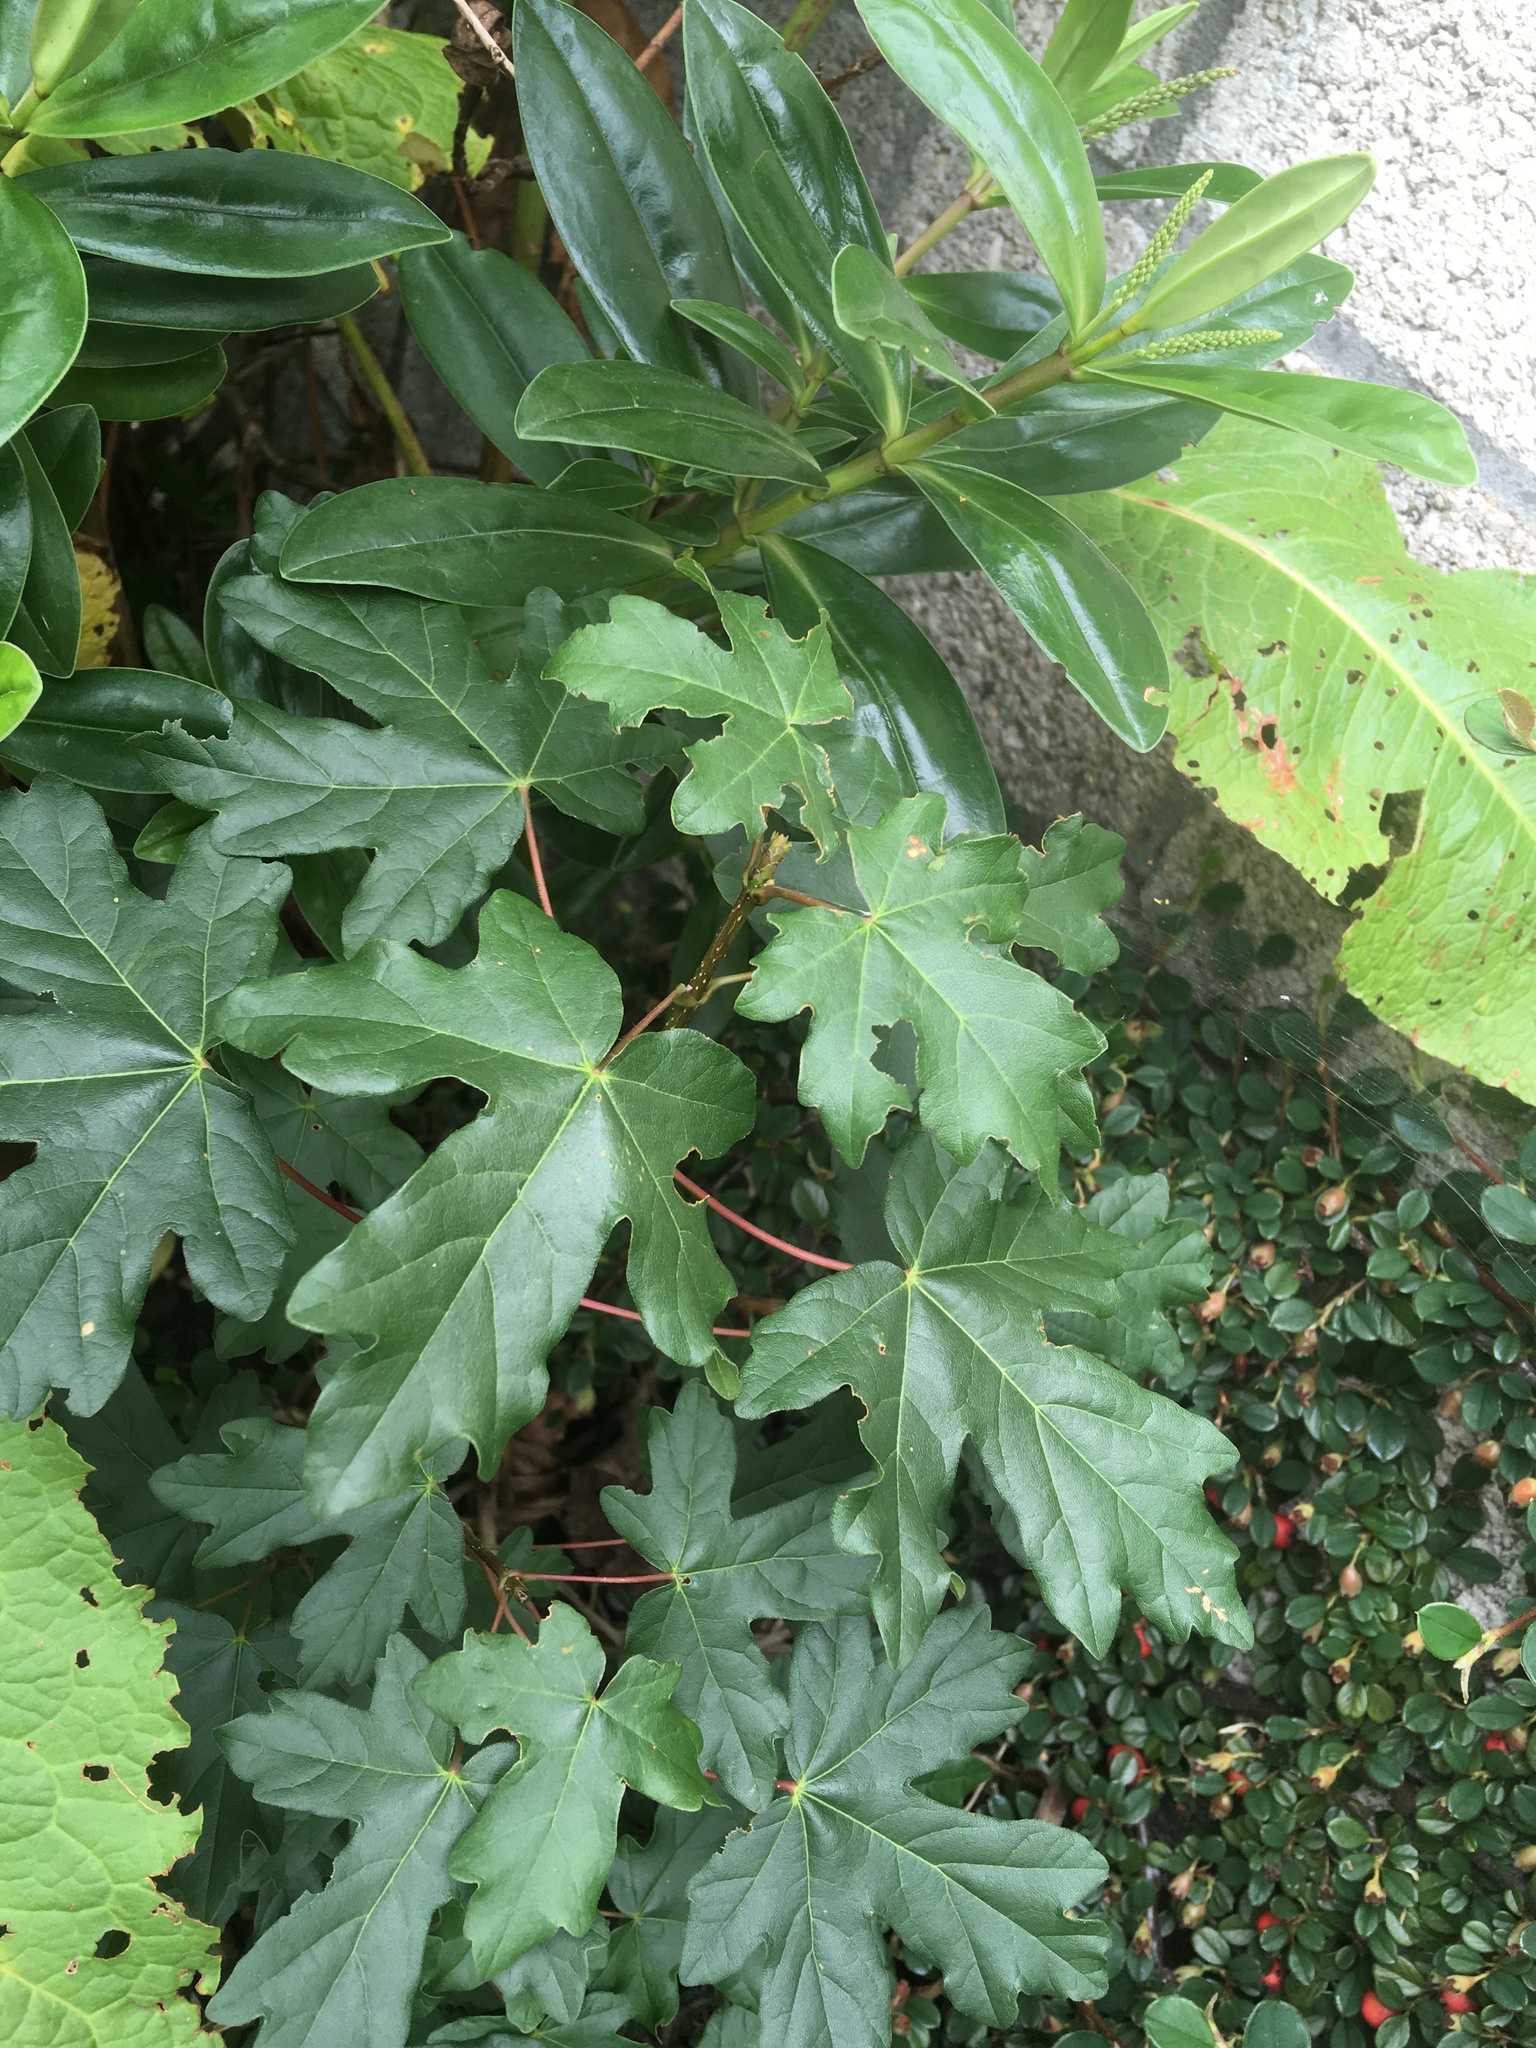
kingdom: Plantae
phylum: Tracheophyta
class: Magnoliopsida
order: Sapindales
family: Sapindaceae
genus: Acer
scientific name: Acer campestre
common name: Field maple
